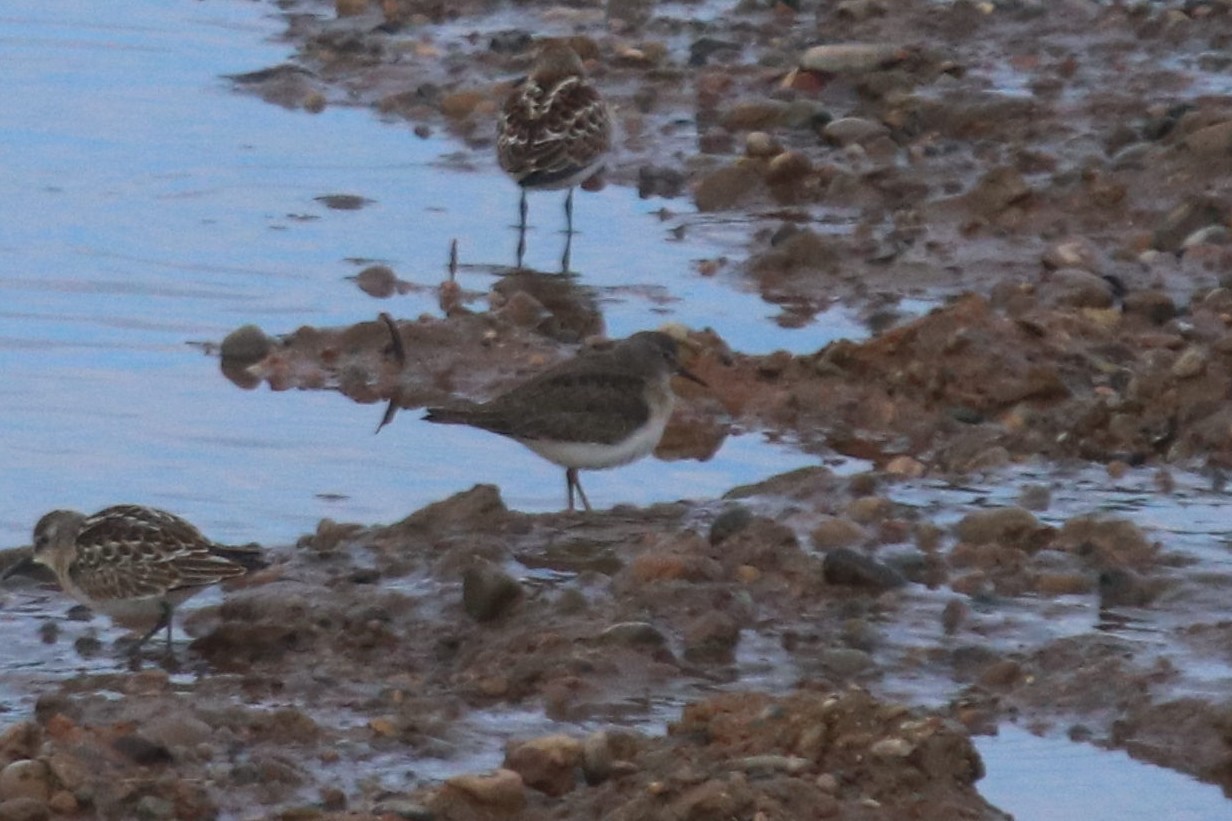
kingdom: Animalia
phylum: Chordata
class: Aves
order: Charadriiformes
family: Scolopacidae
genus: Calidris
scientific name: Calidris temminckii
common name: Temminck's stint
